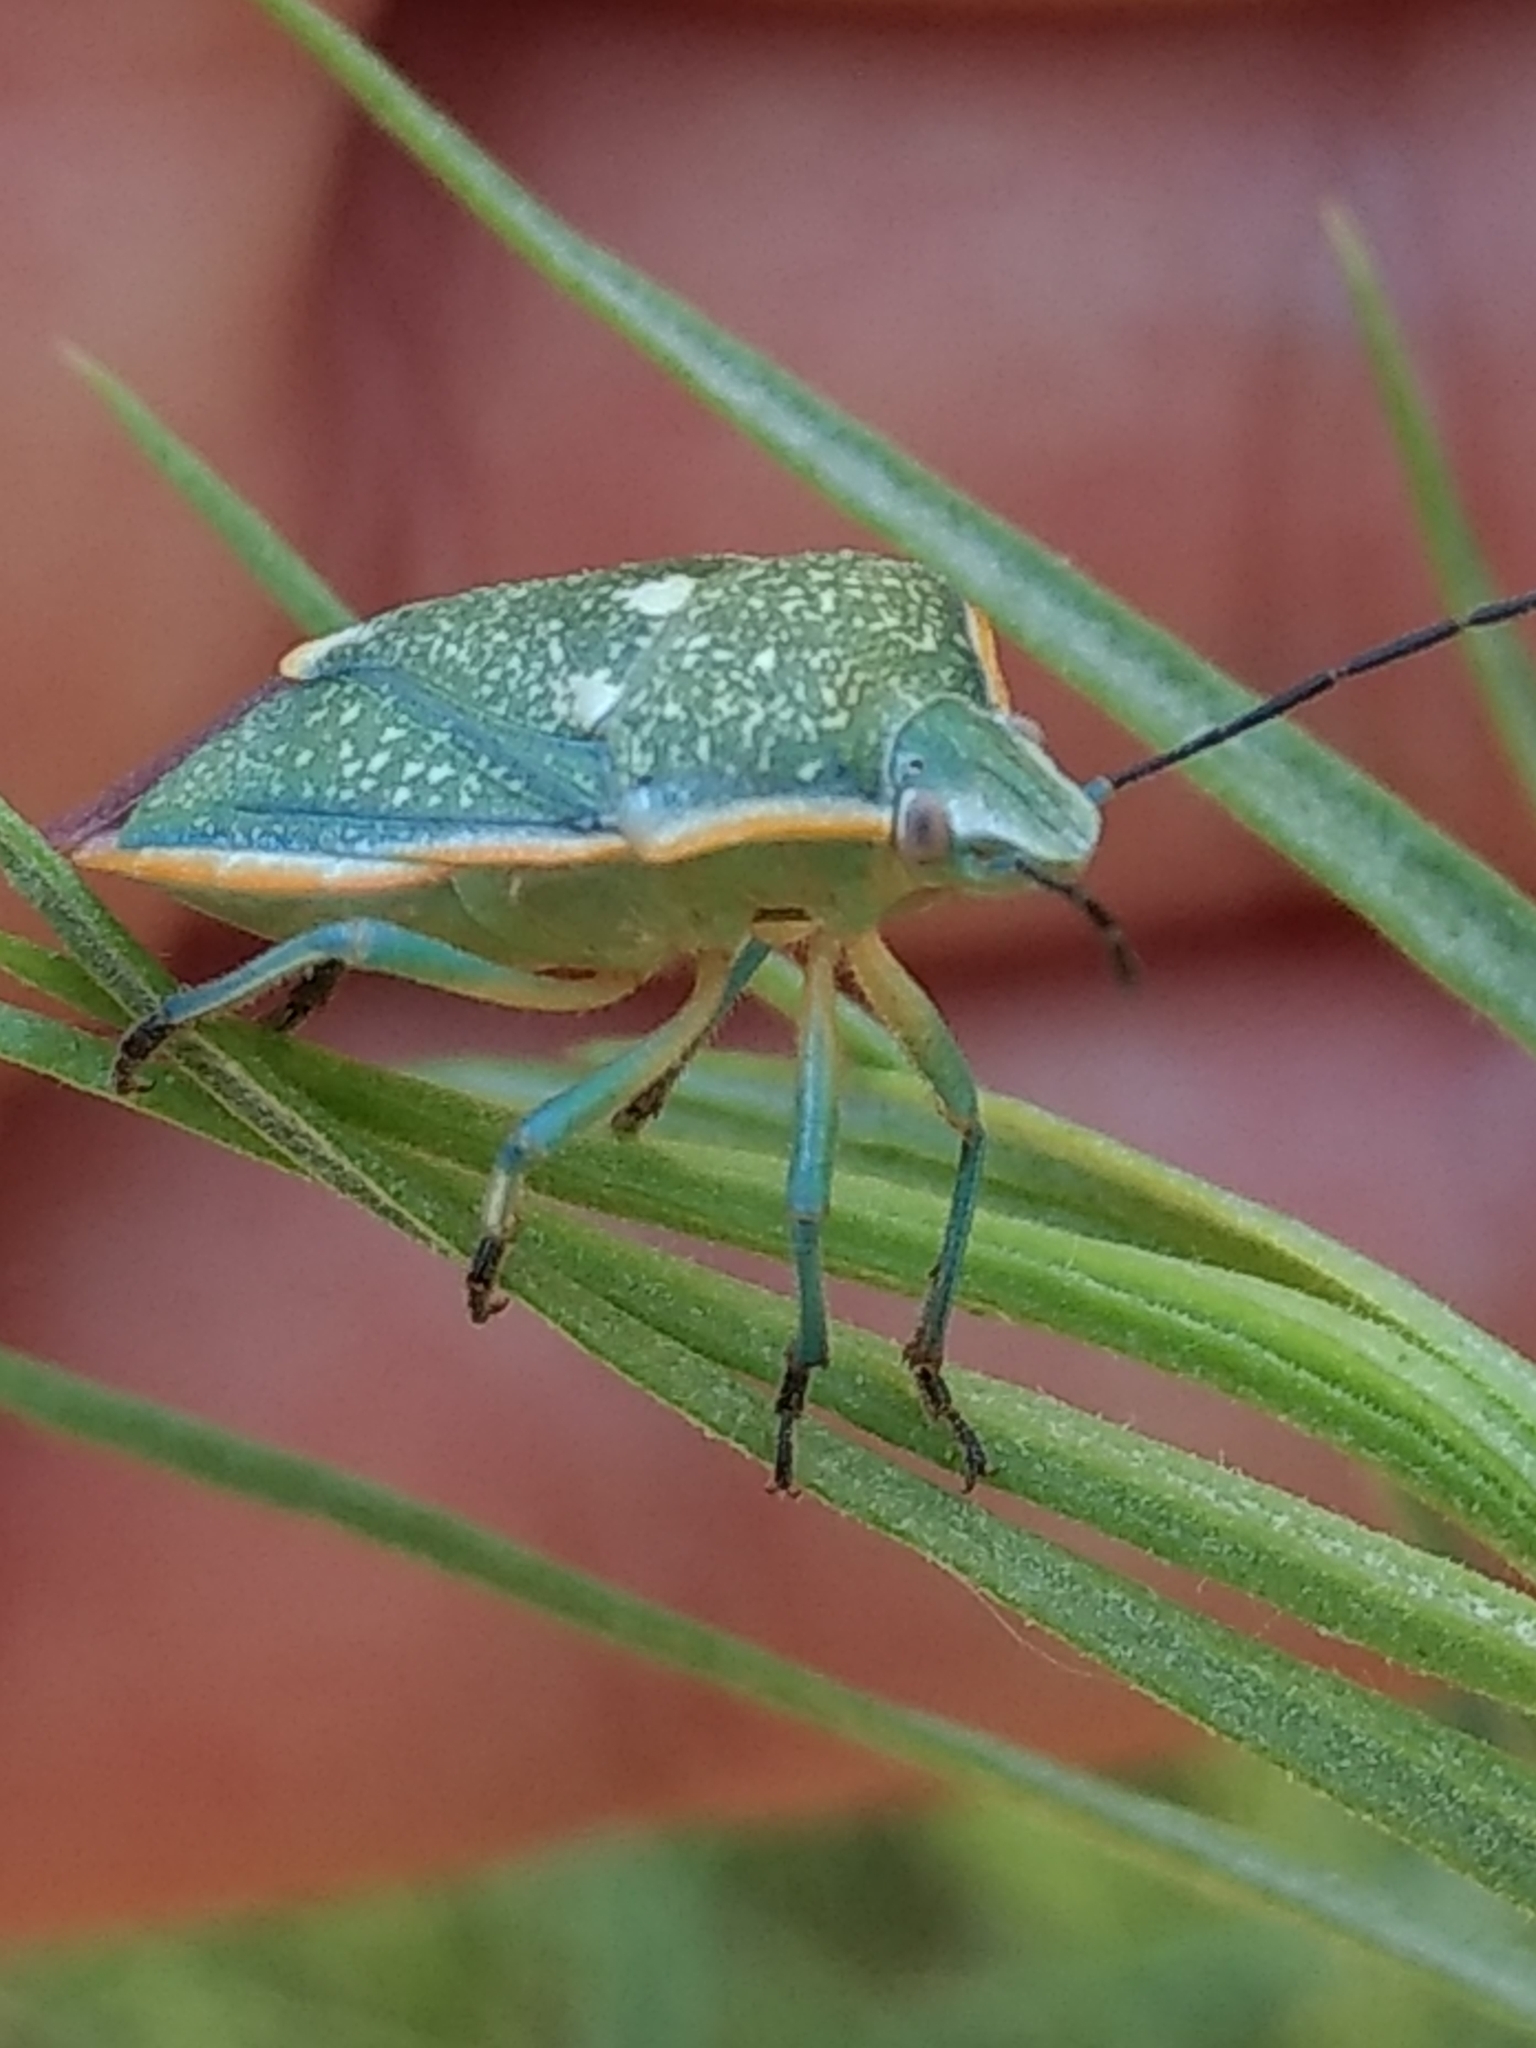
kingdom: Animalia
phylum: Arthropoda
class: Insecta
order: Hemiptera
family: Pentatomidae
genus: Chlorochroa
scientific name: Chlorochroa sayi
